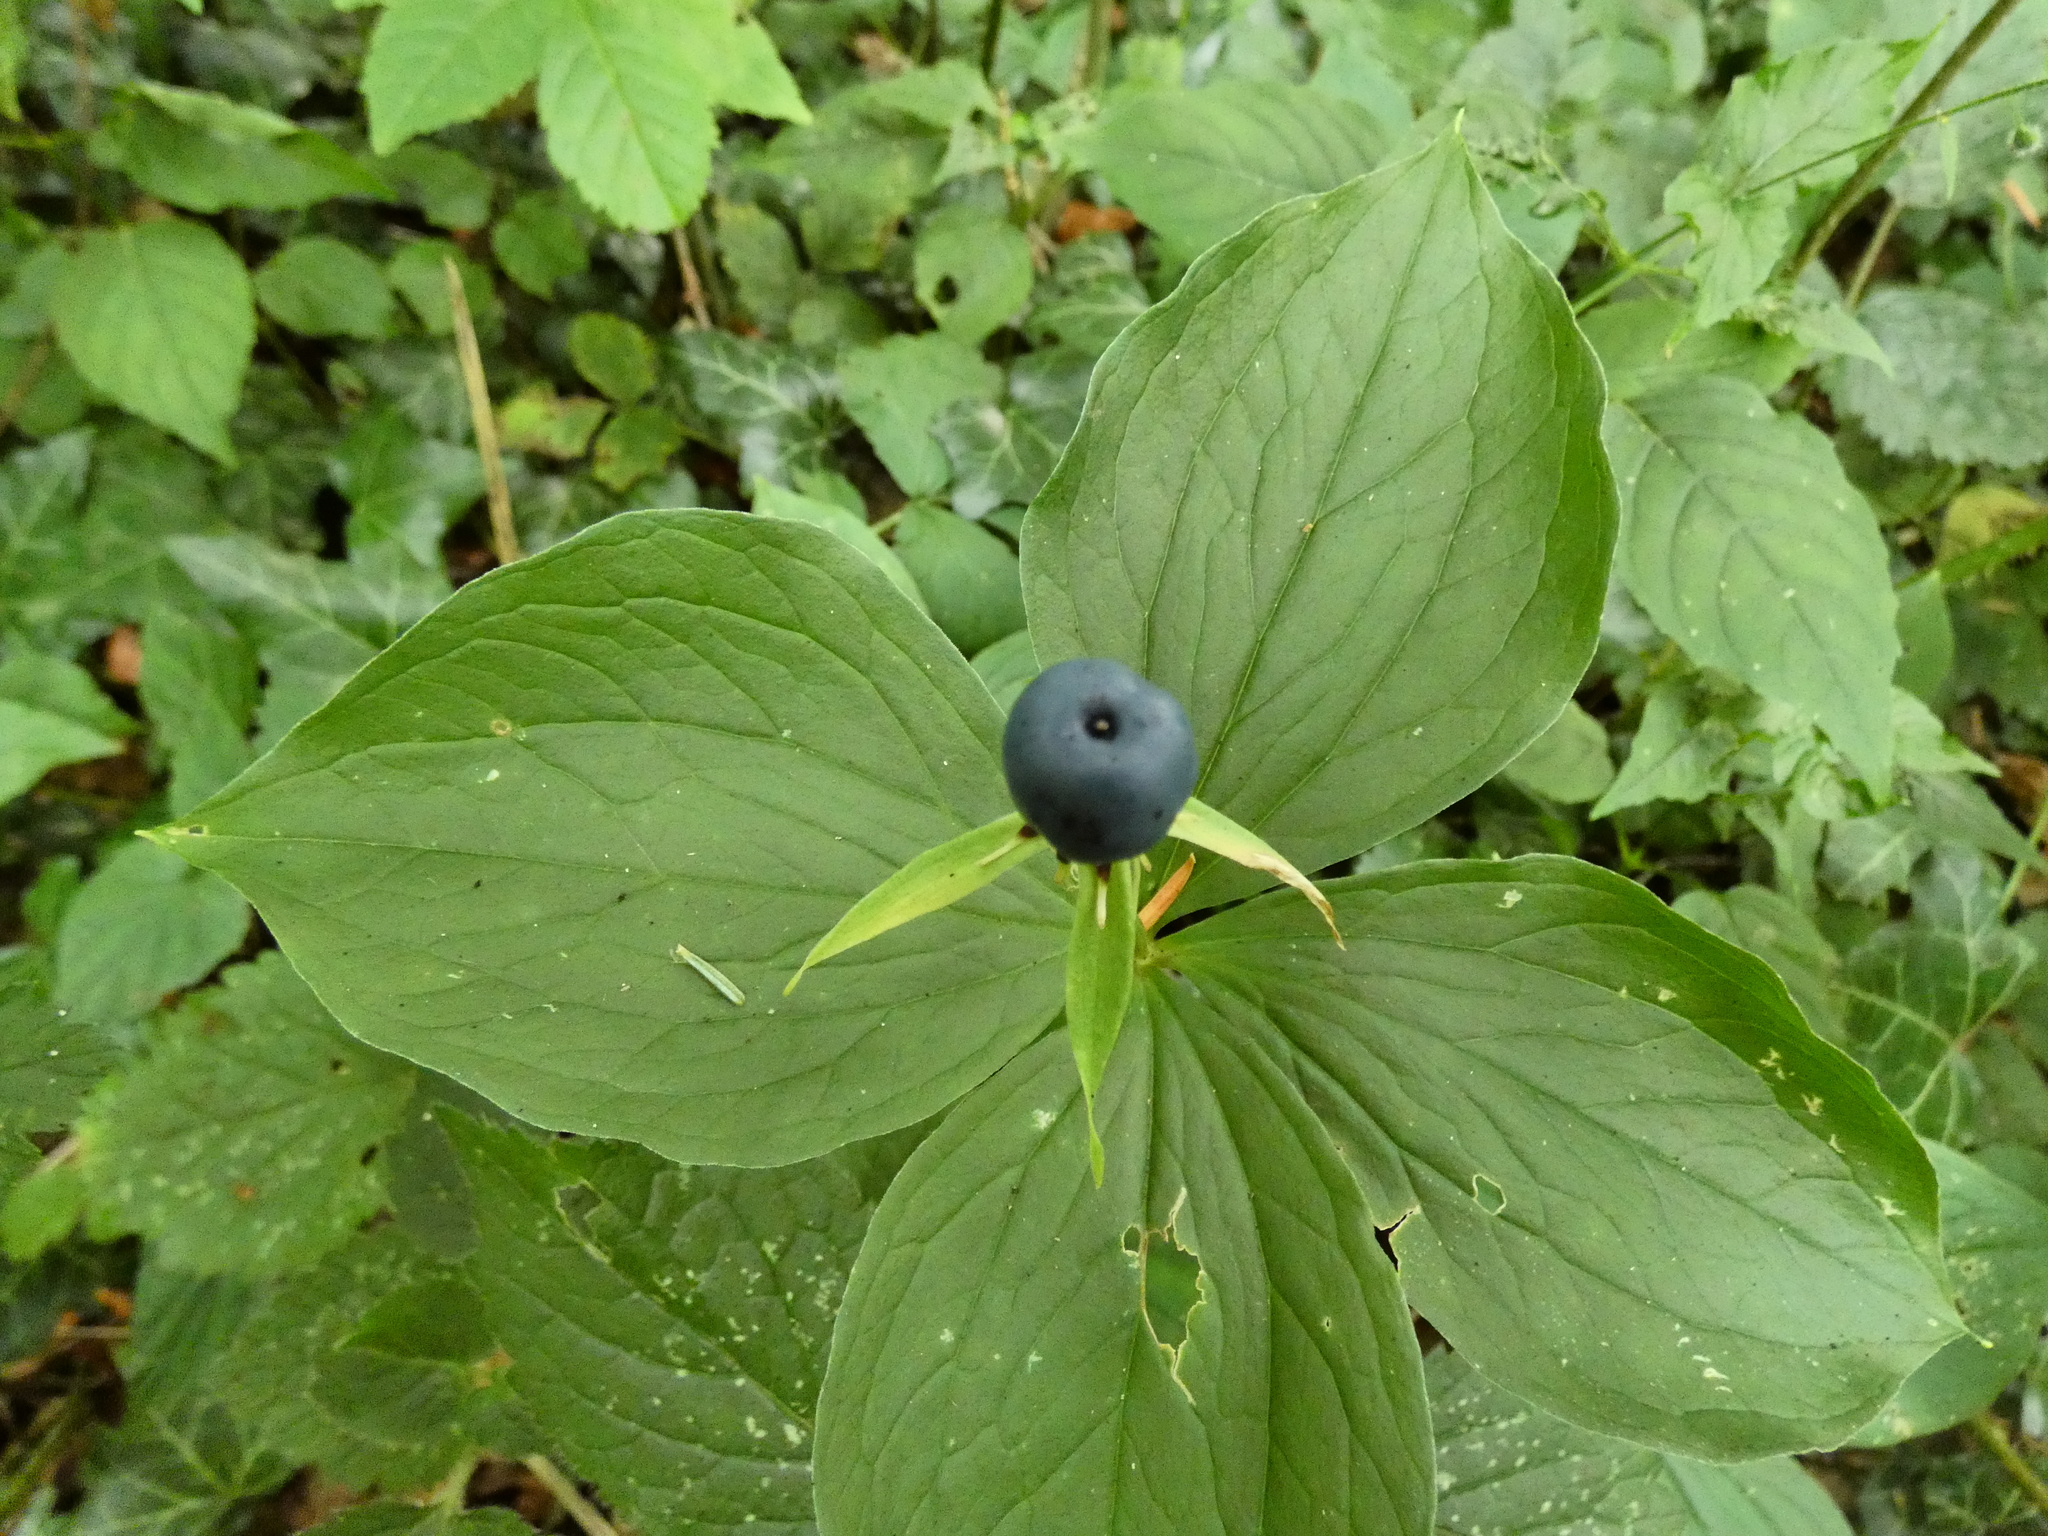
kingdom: Plantae
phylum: Tracheophyta
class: Liliopsida
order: Liliales
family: Melanthiaceae
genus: Paris
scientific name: Paris quadrifolia
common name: Herb-paris
